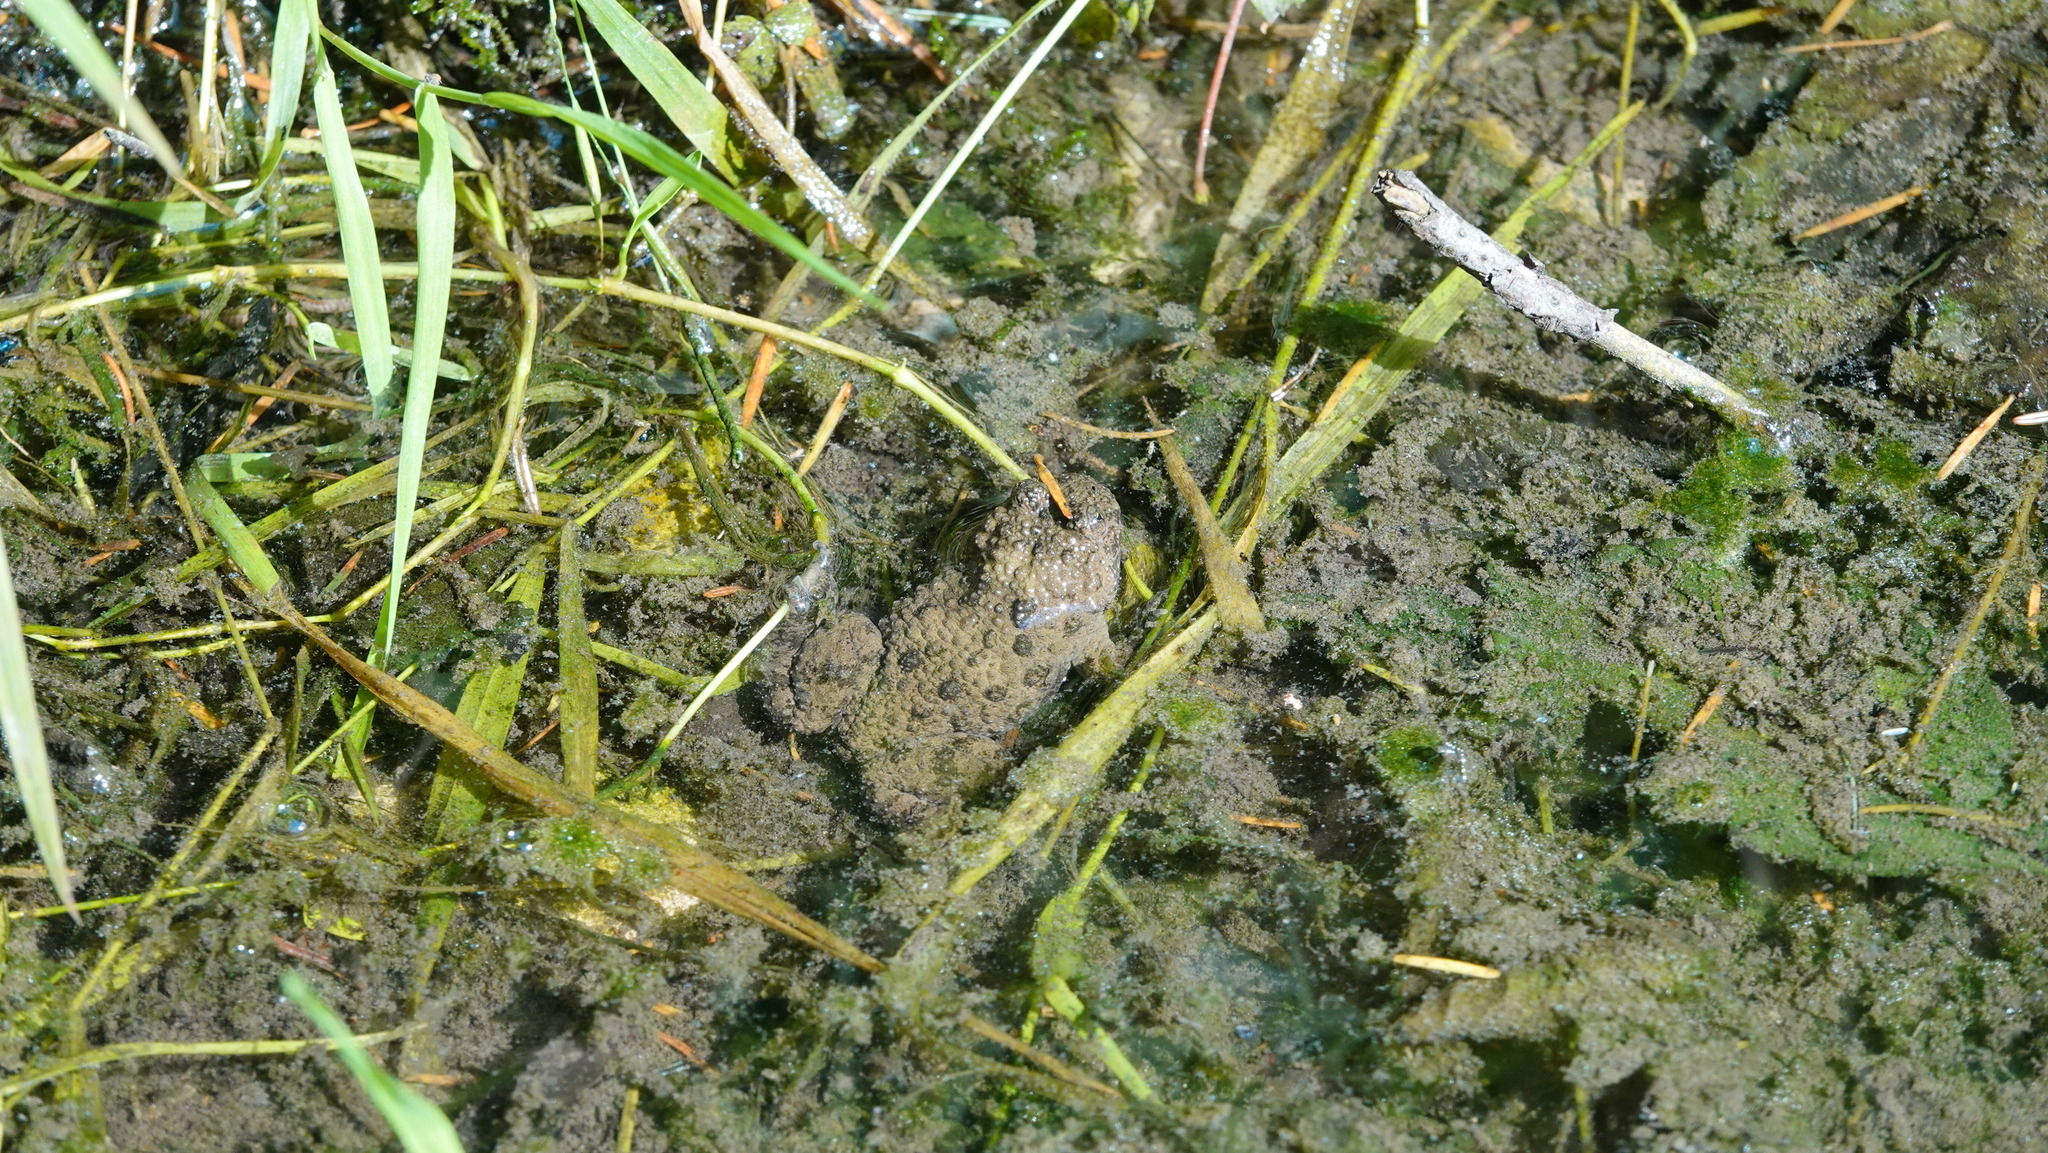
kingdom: Animalia
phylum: Chordata
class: Amphibia
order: Anura
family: Bombinatoridae
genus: Bombina
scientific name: Bombina variegata
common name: Yellow-bellied toad
